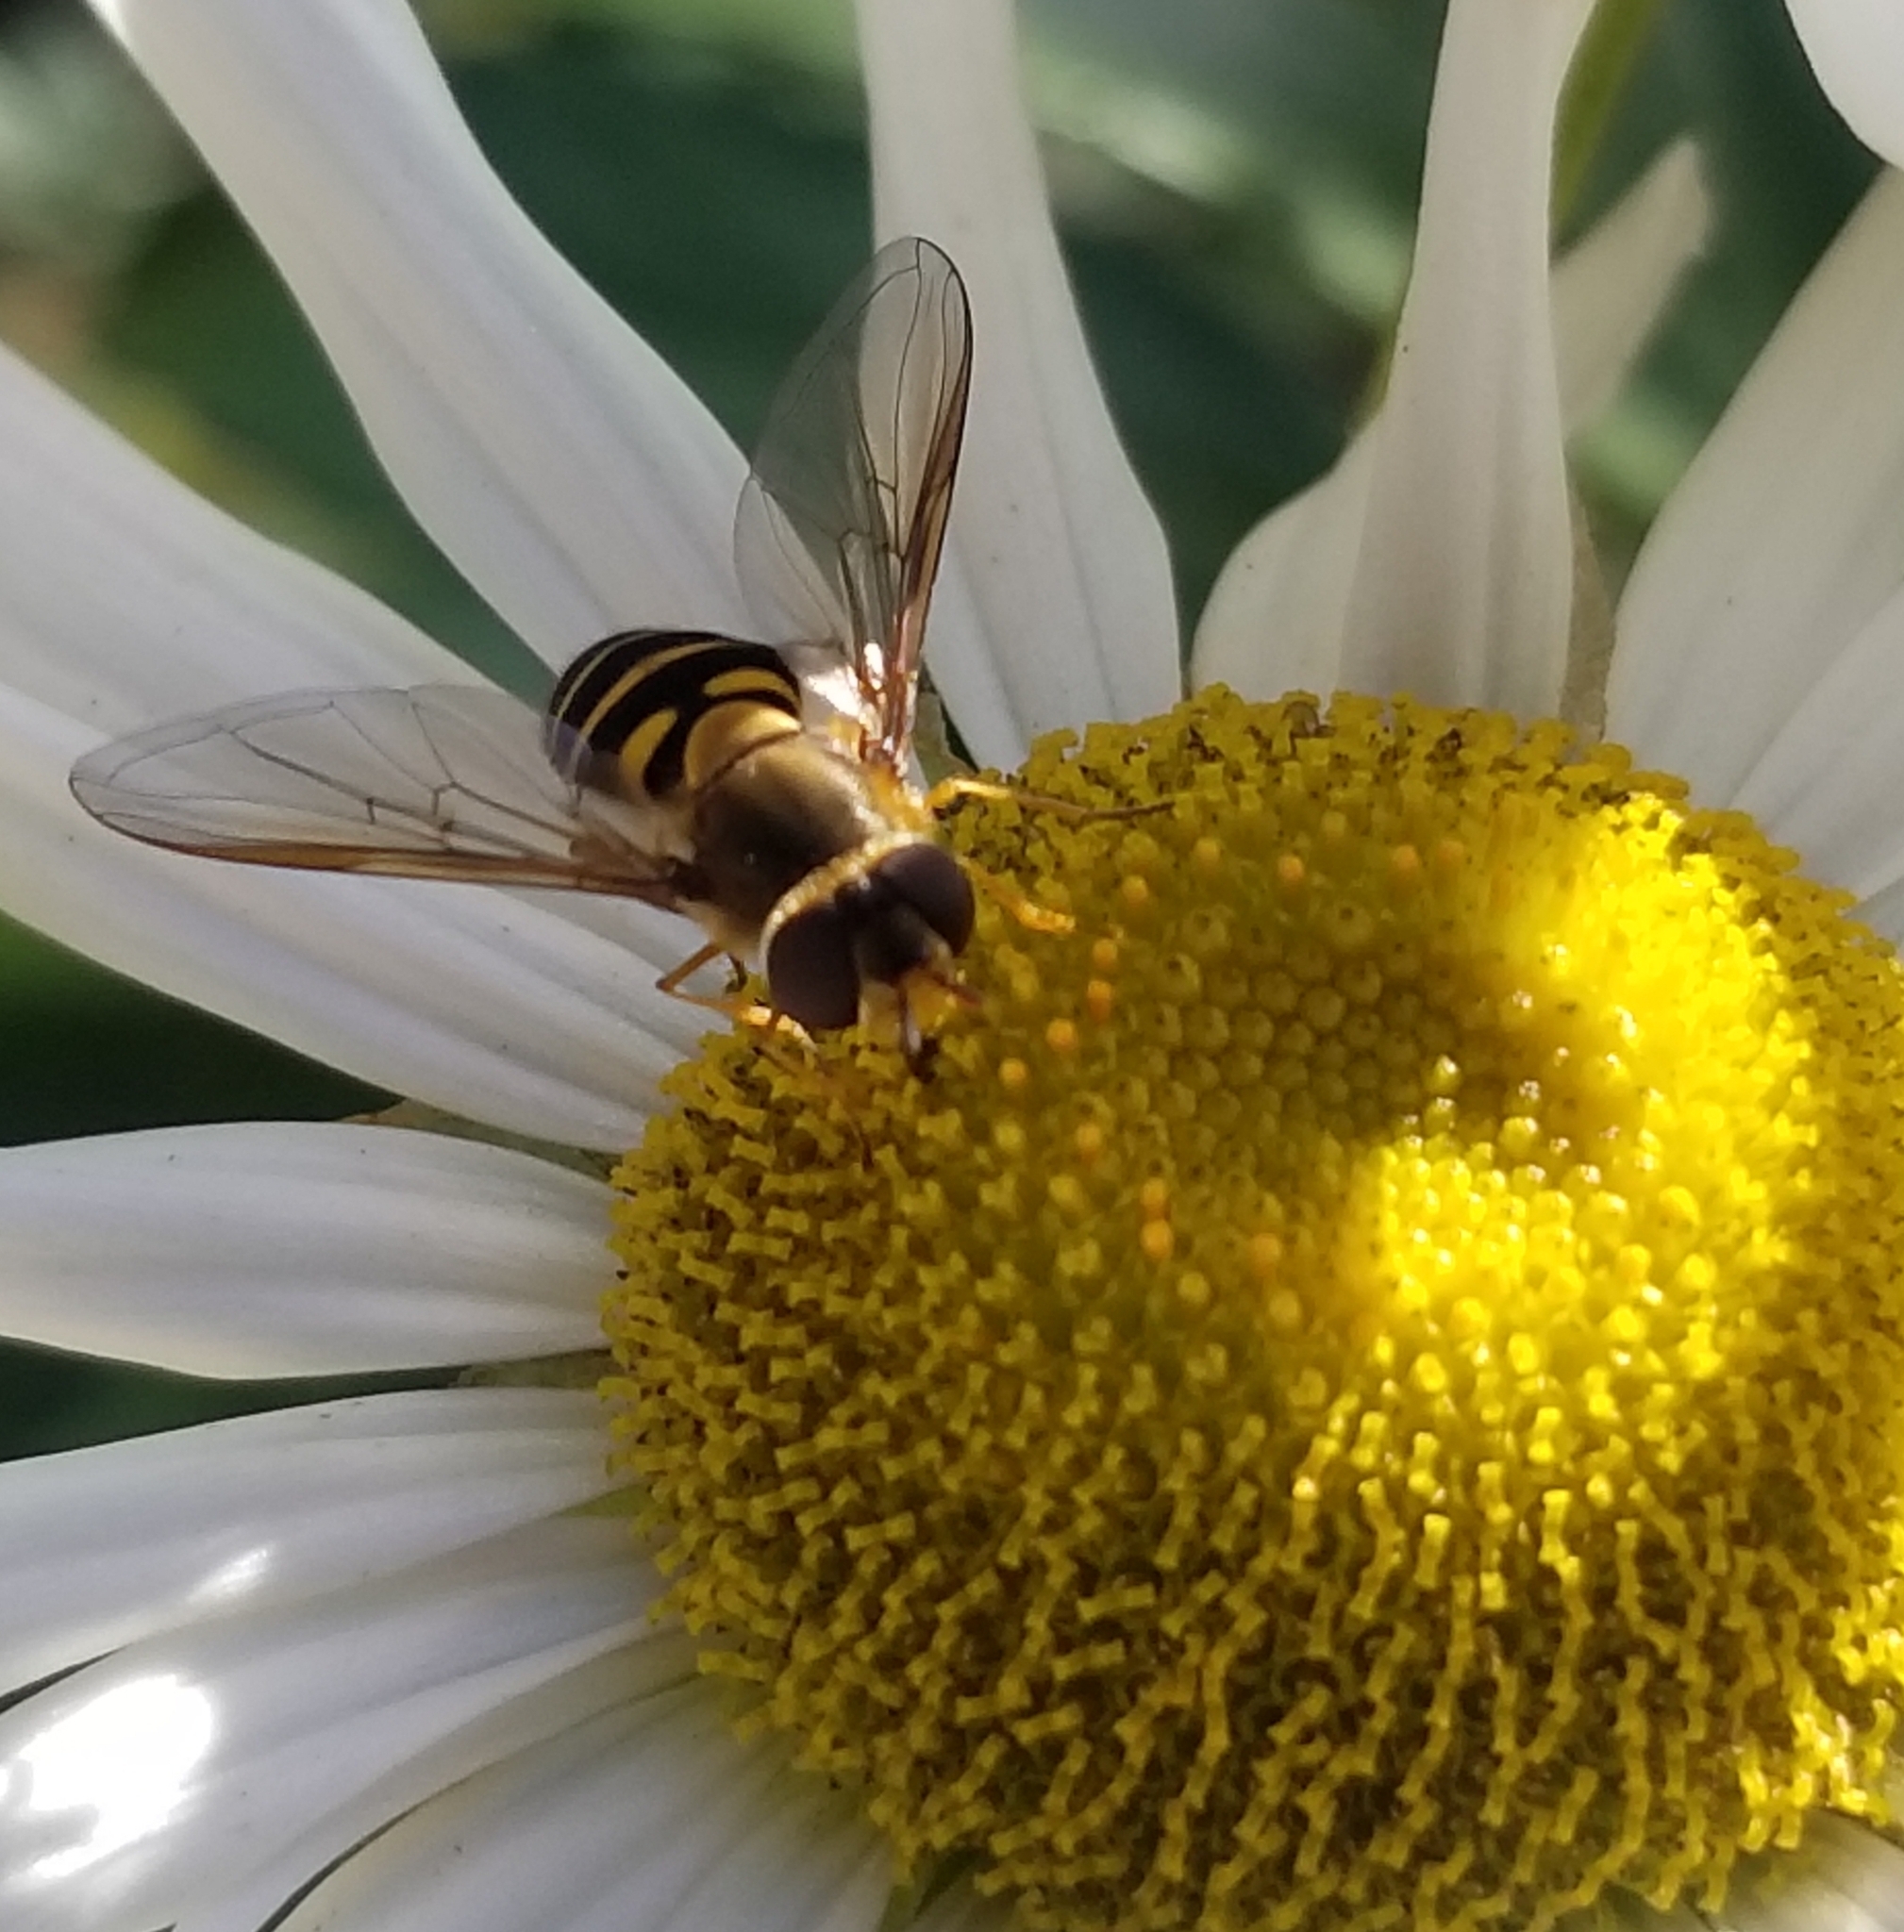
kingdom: Animalia
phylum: Arthropoda
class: Insecta
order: Diptera
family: Syrphidae
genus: Syrphus
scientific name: Syrphus
